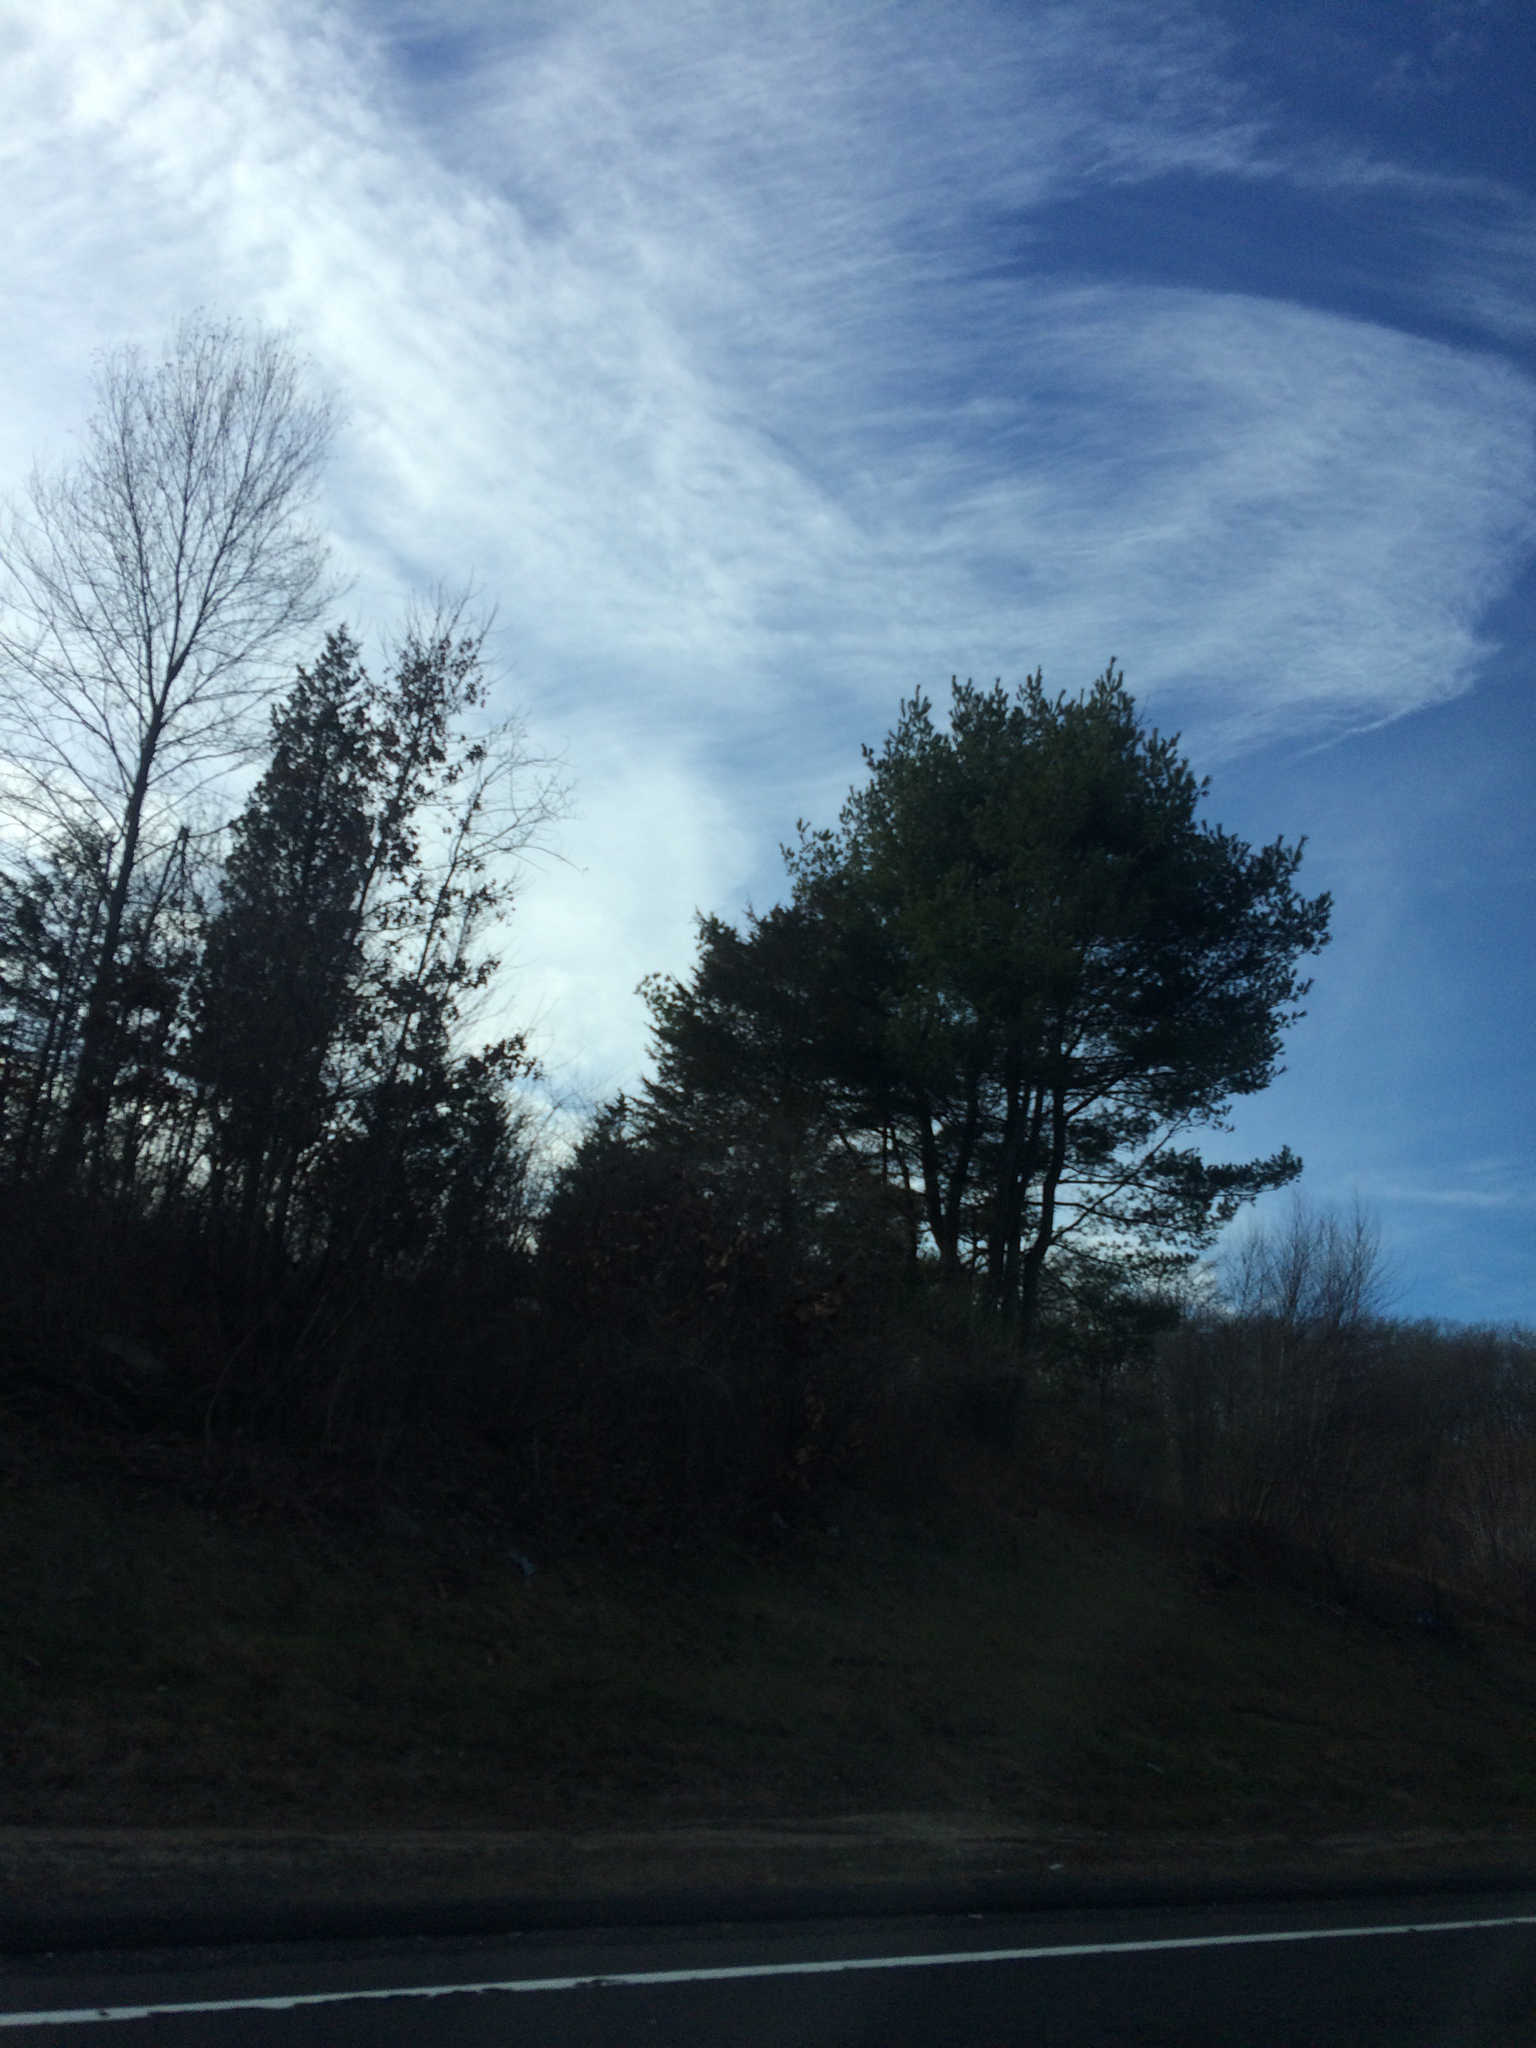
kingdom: Plantae
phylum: Tracheophyta
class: Pinopsida
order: Pinales
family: Pinaceae
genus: Pinus
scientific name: Pinus strobus
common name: Weymouth pine
